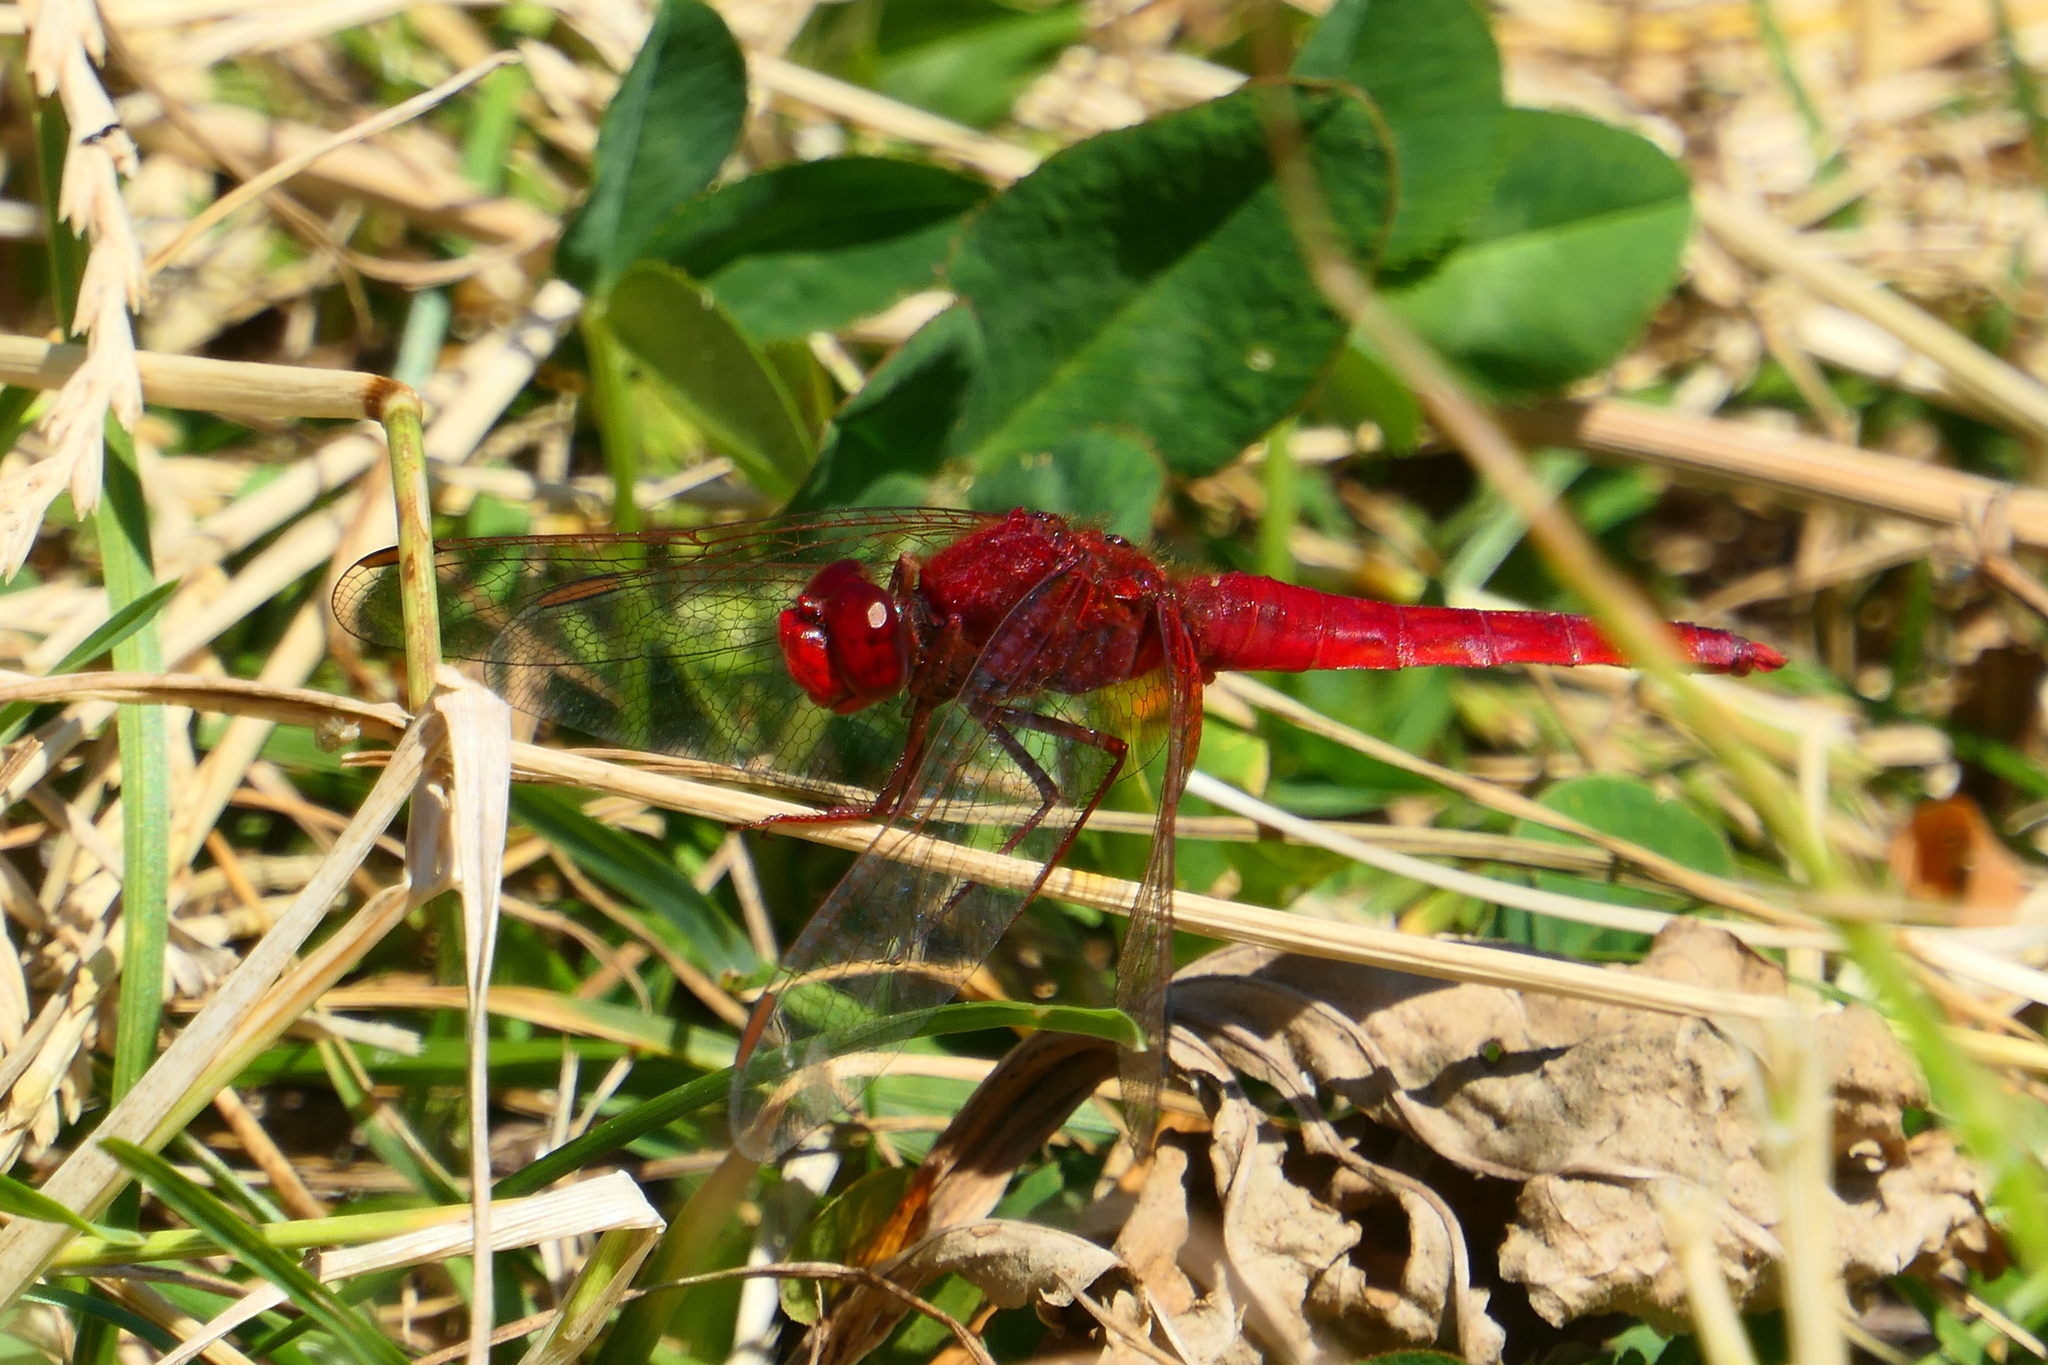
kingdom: Animalia
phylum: Arthropoda
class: Insecta
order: Odonata
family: Libellulidae
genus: Crocothemis
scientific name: Crocothemis erythraea
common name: Scarlet dragonfly
